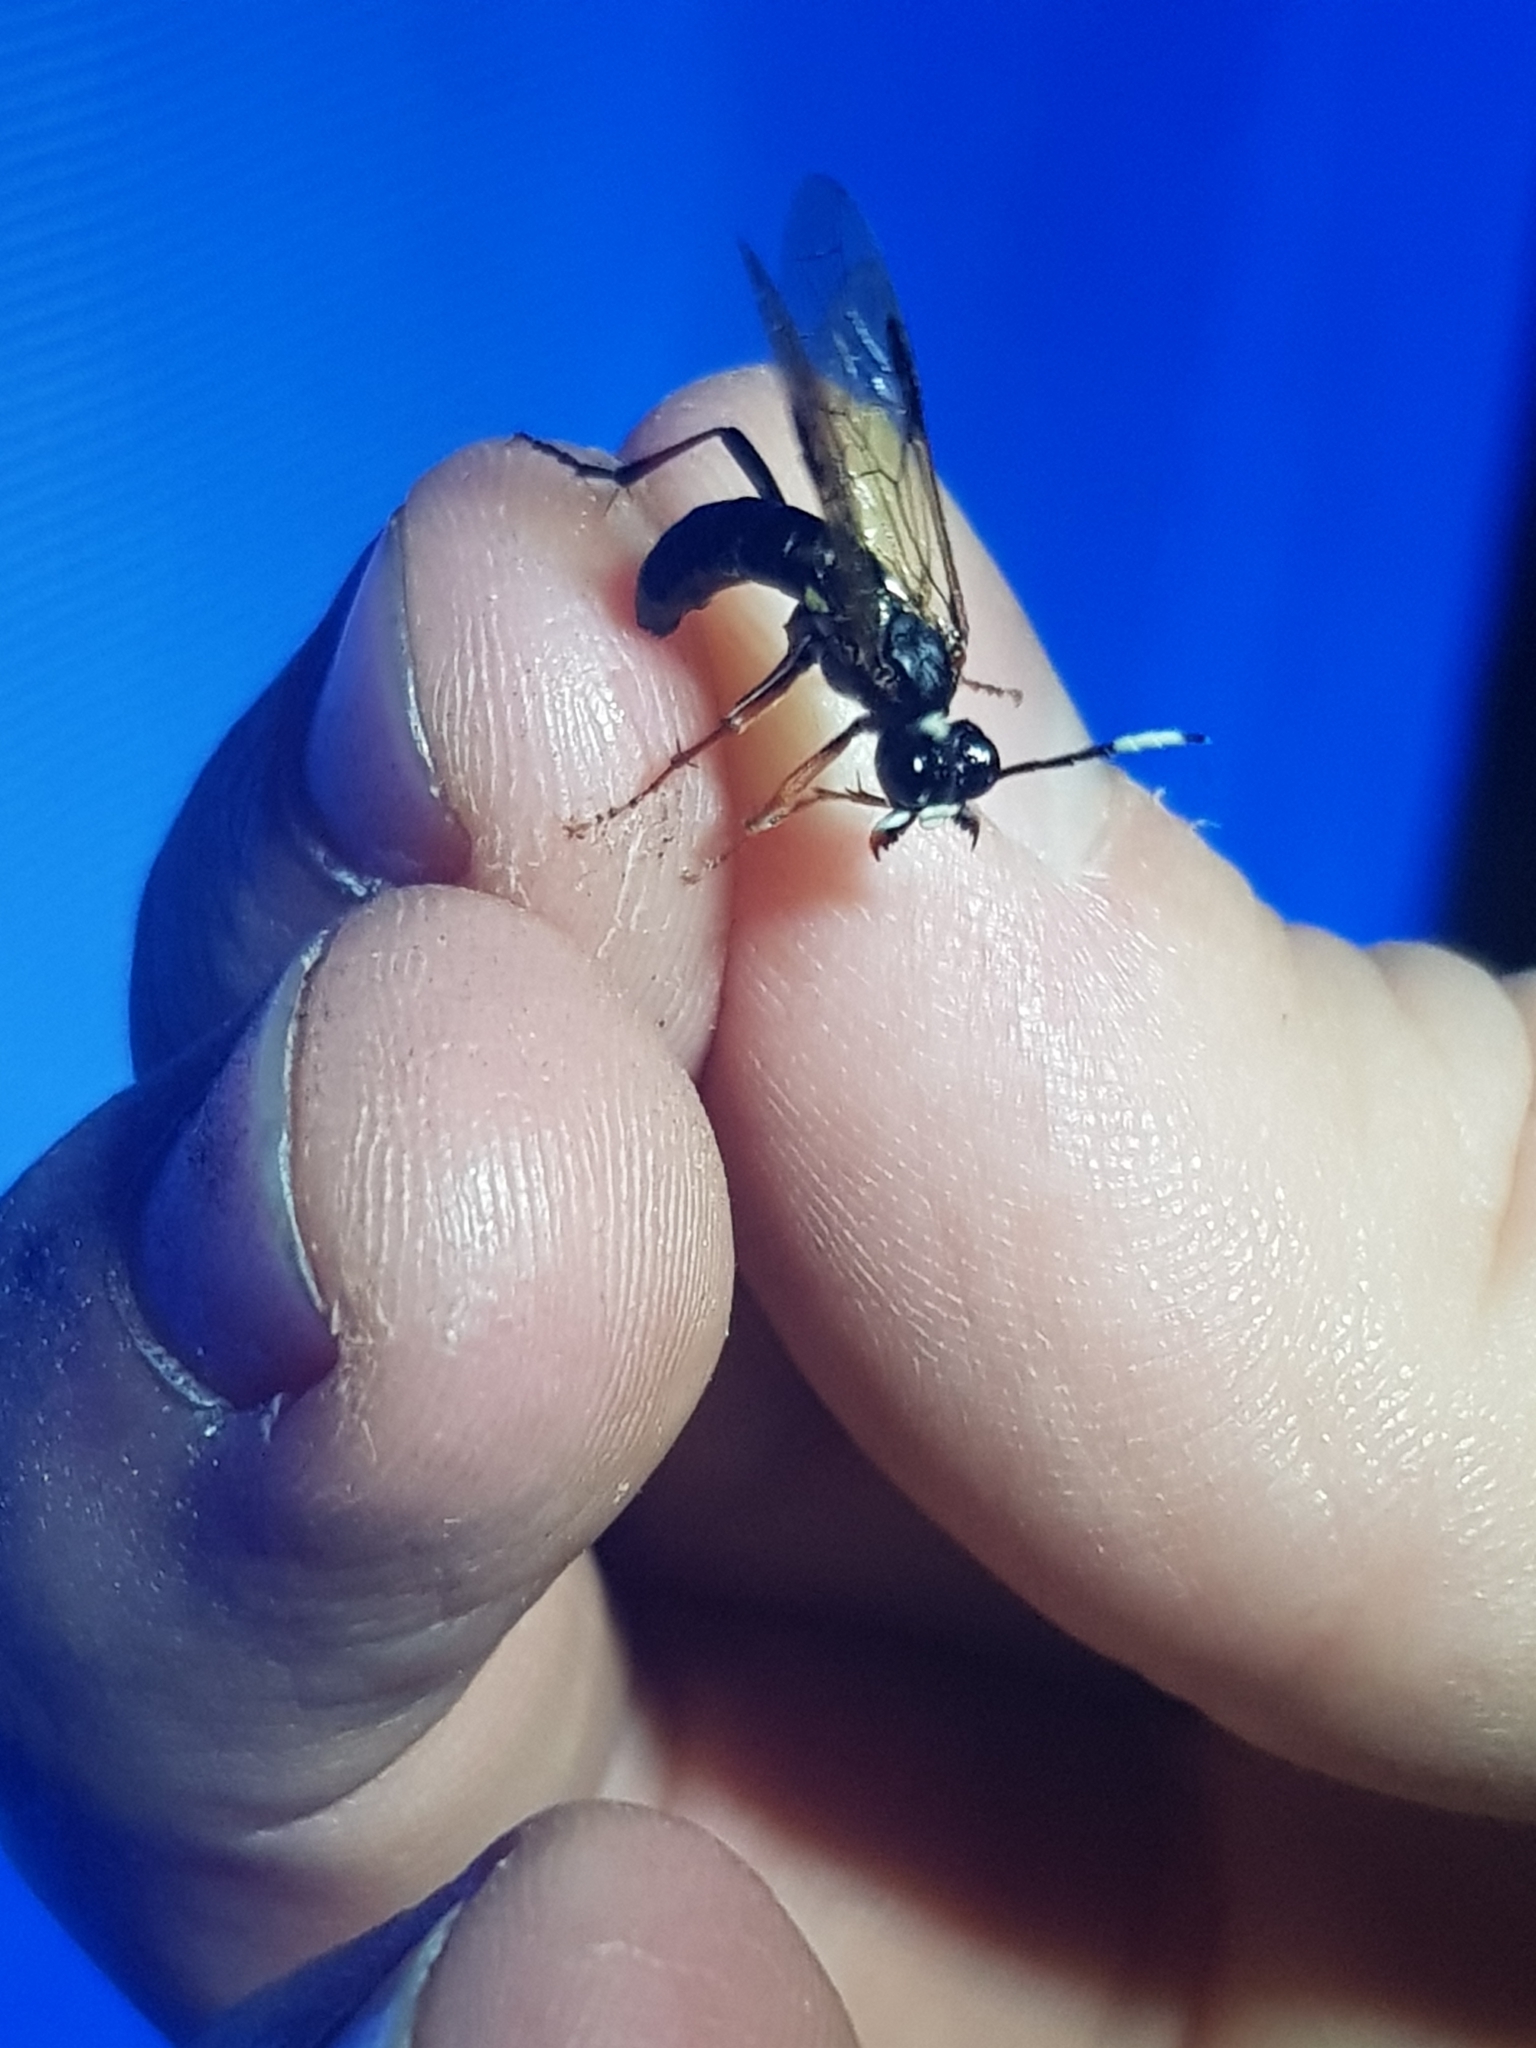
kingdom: Animalia
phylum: Arthropoda
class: Insecta
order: Hymenoptera
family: Tenthredinidae
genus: Tenthredo
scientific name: Tenthredo colon
